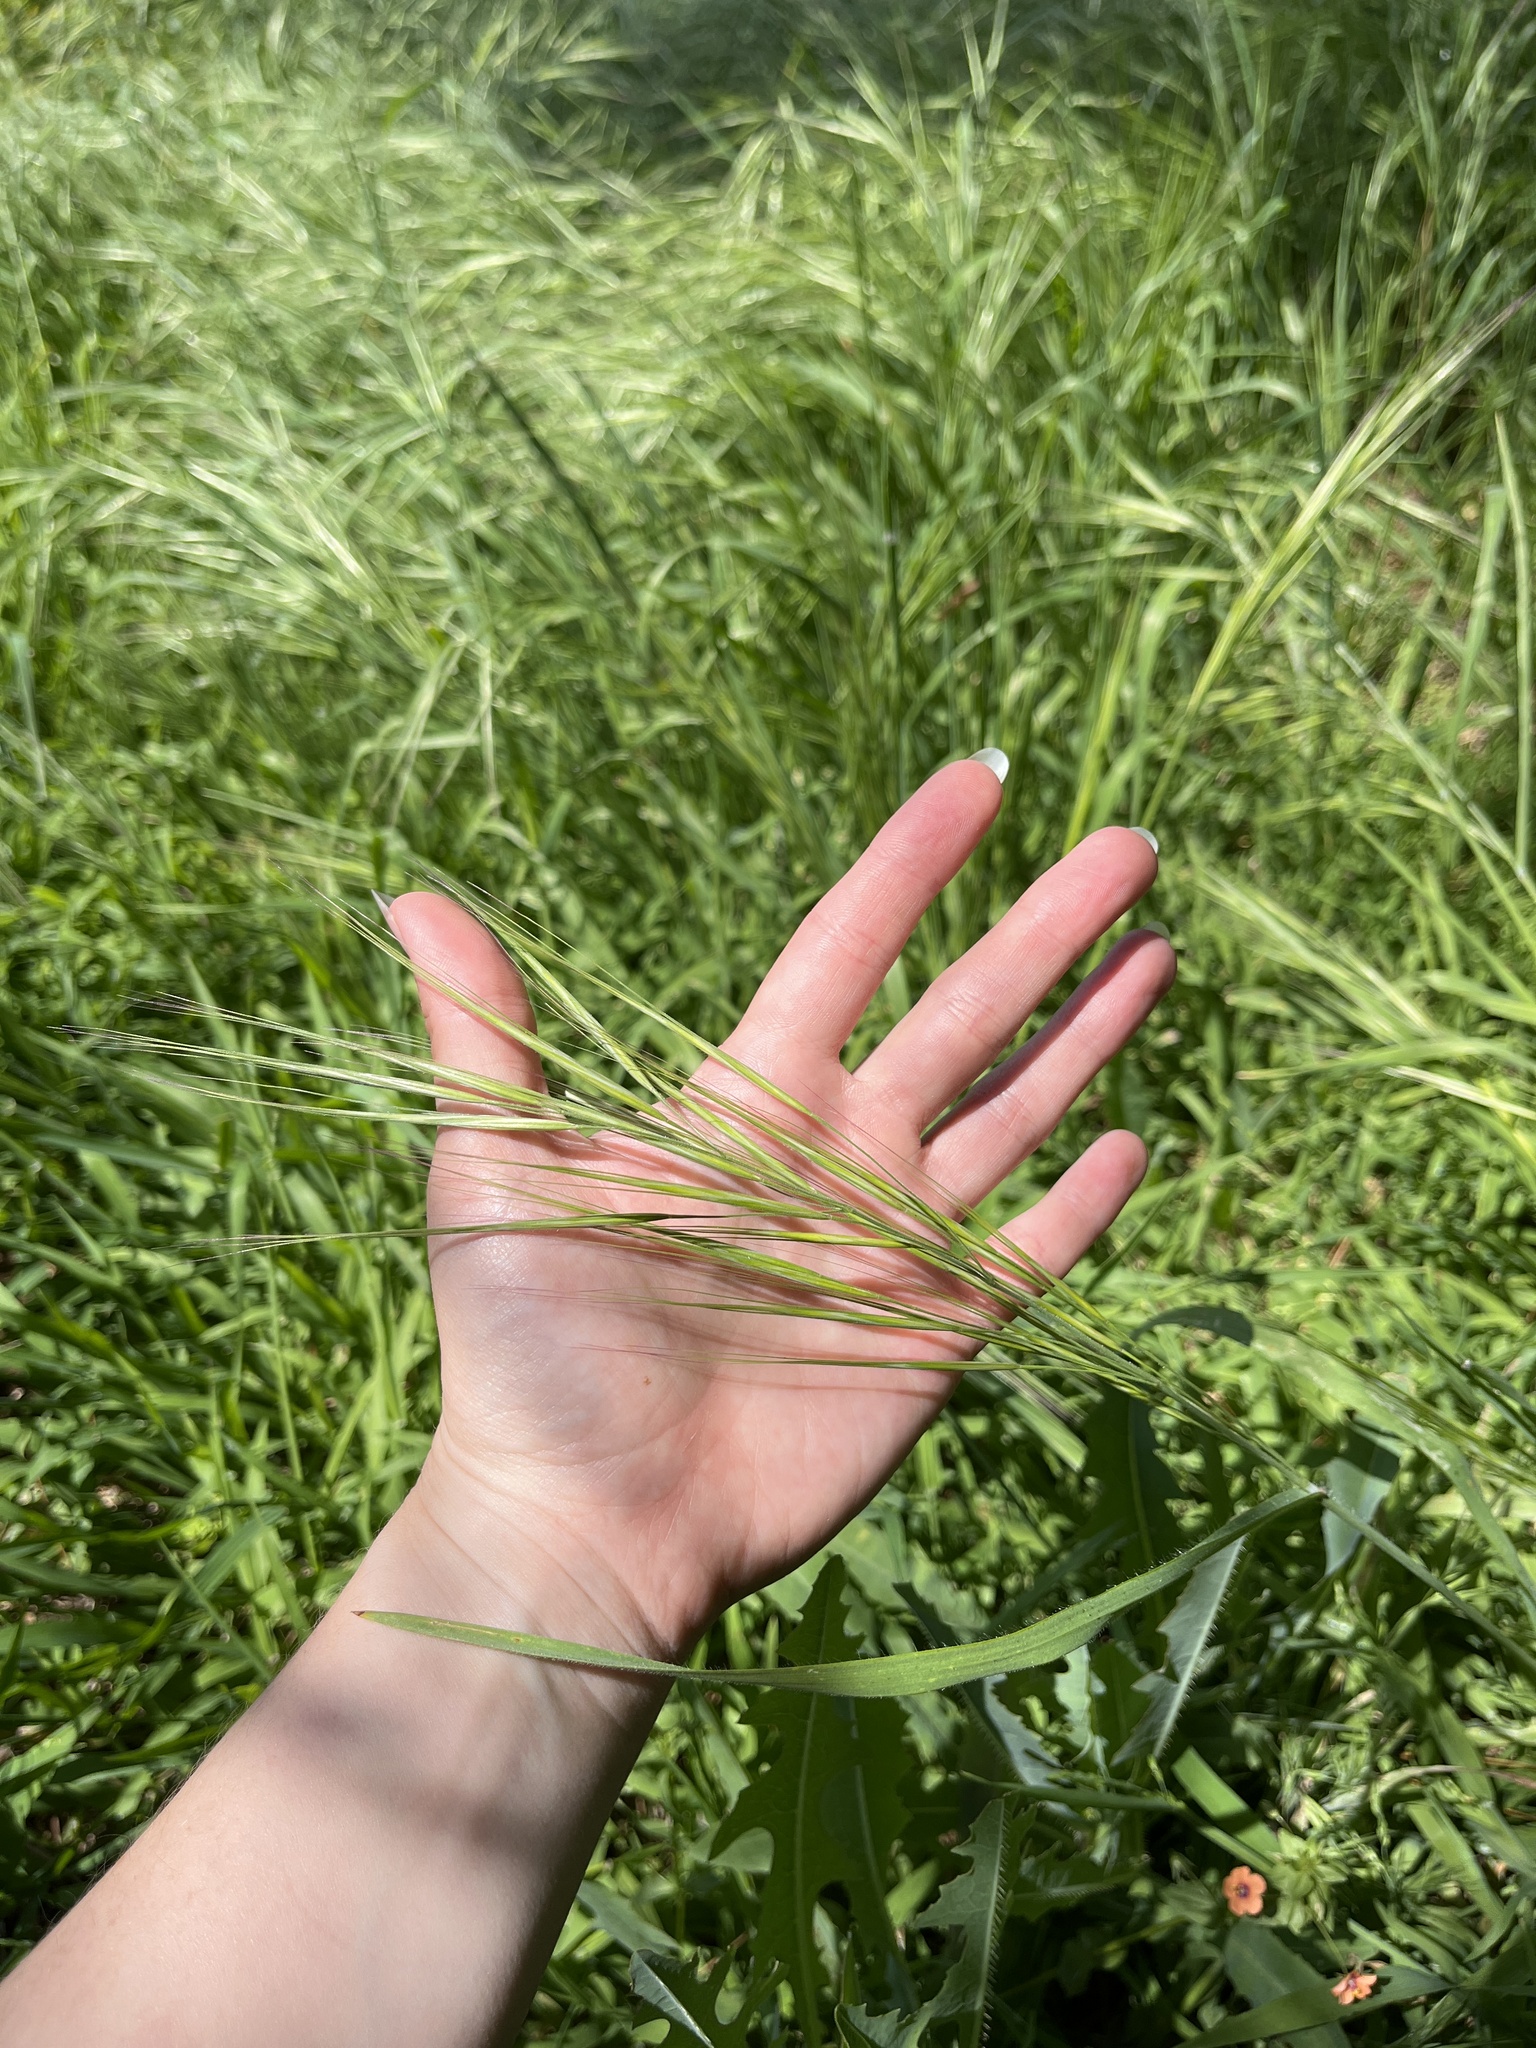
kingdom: Plantae
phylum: Tracheophyta
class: Liliopsida
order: Poales
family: Poaceae
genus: Bromus
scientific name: Bromus diandrus
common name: Ripgut brome
